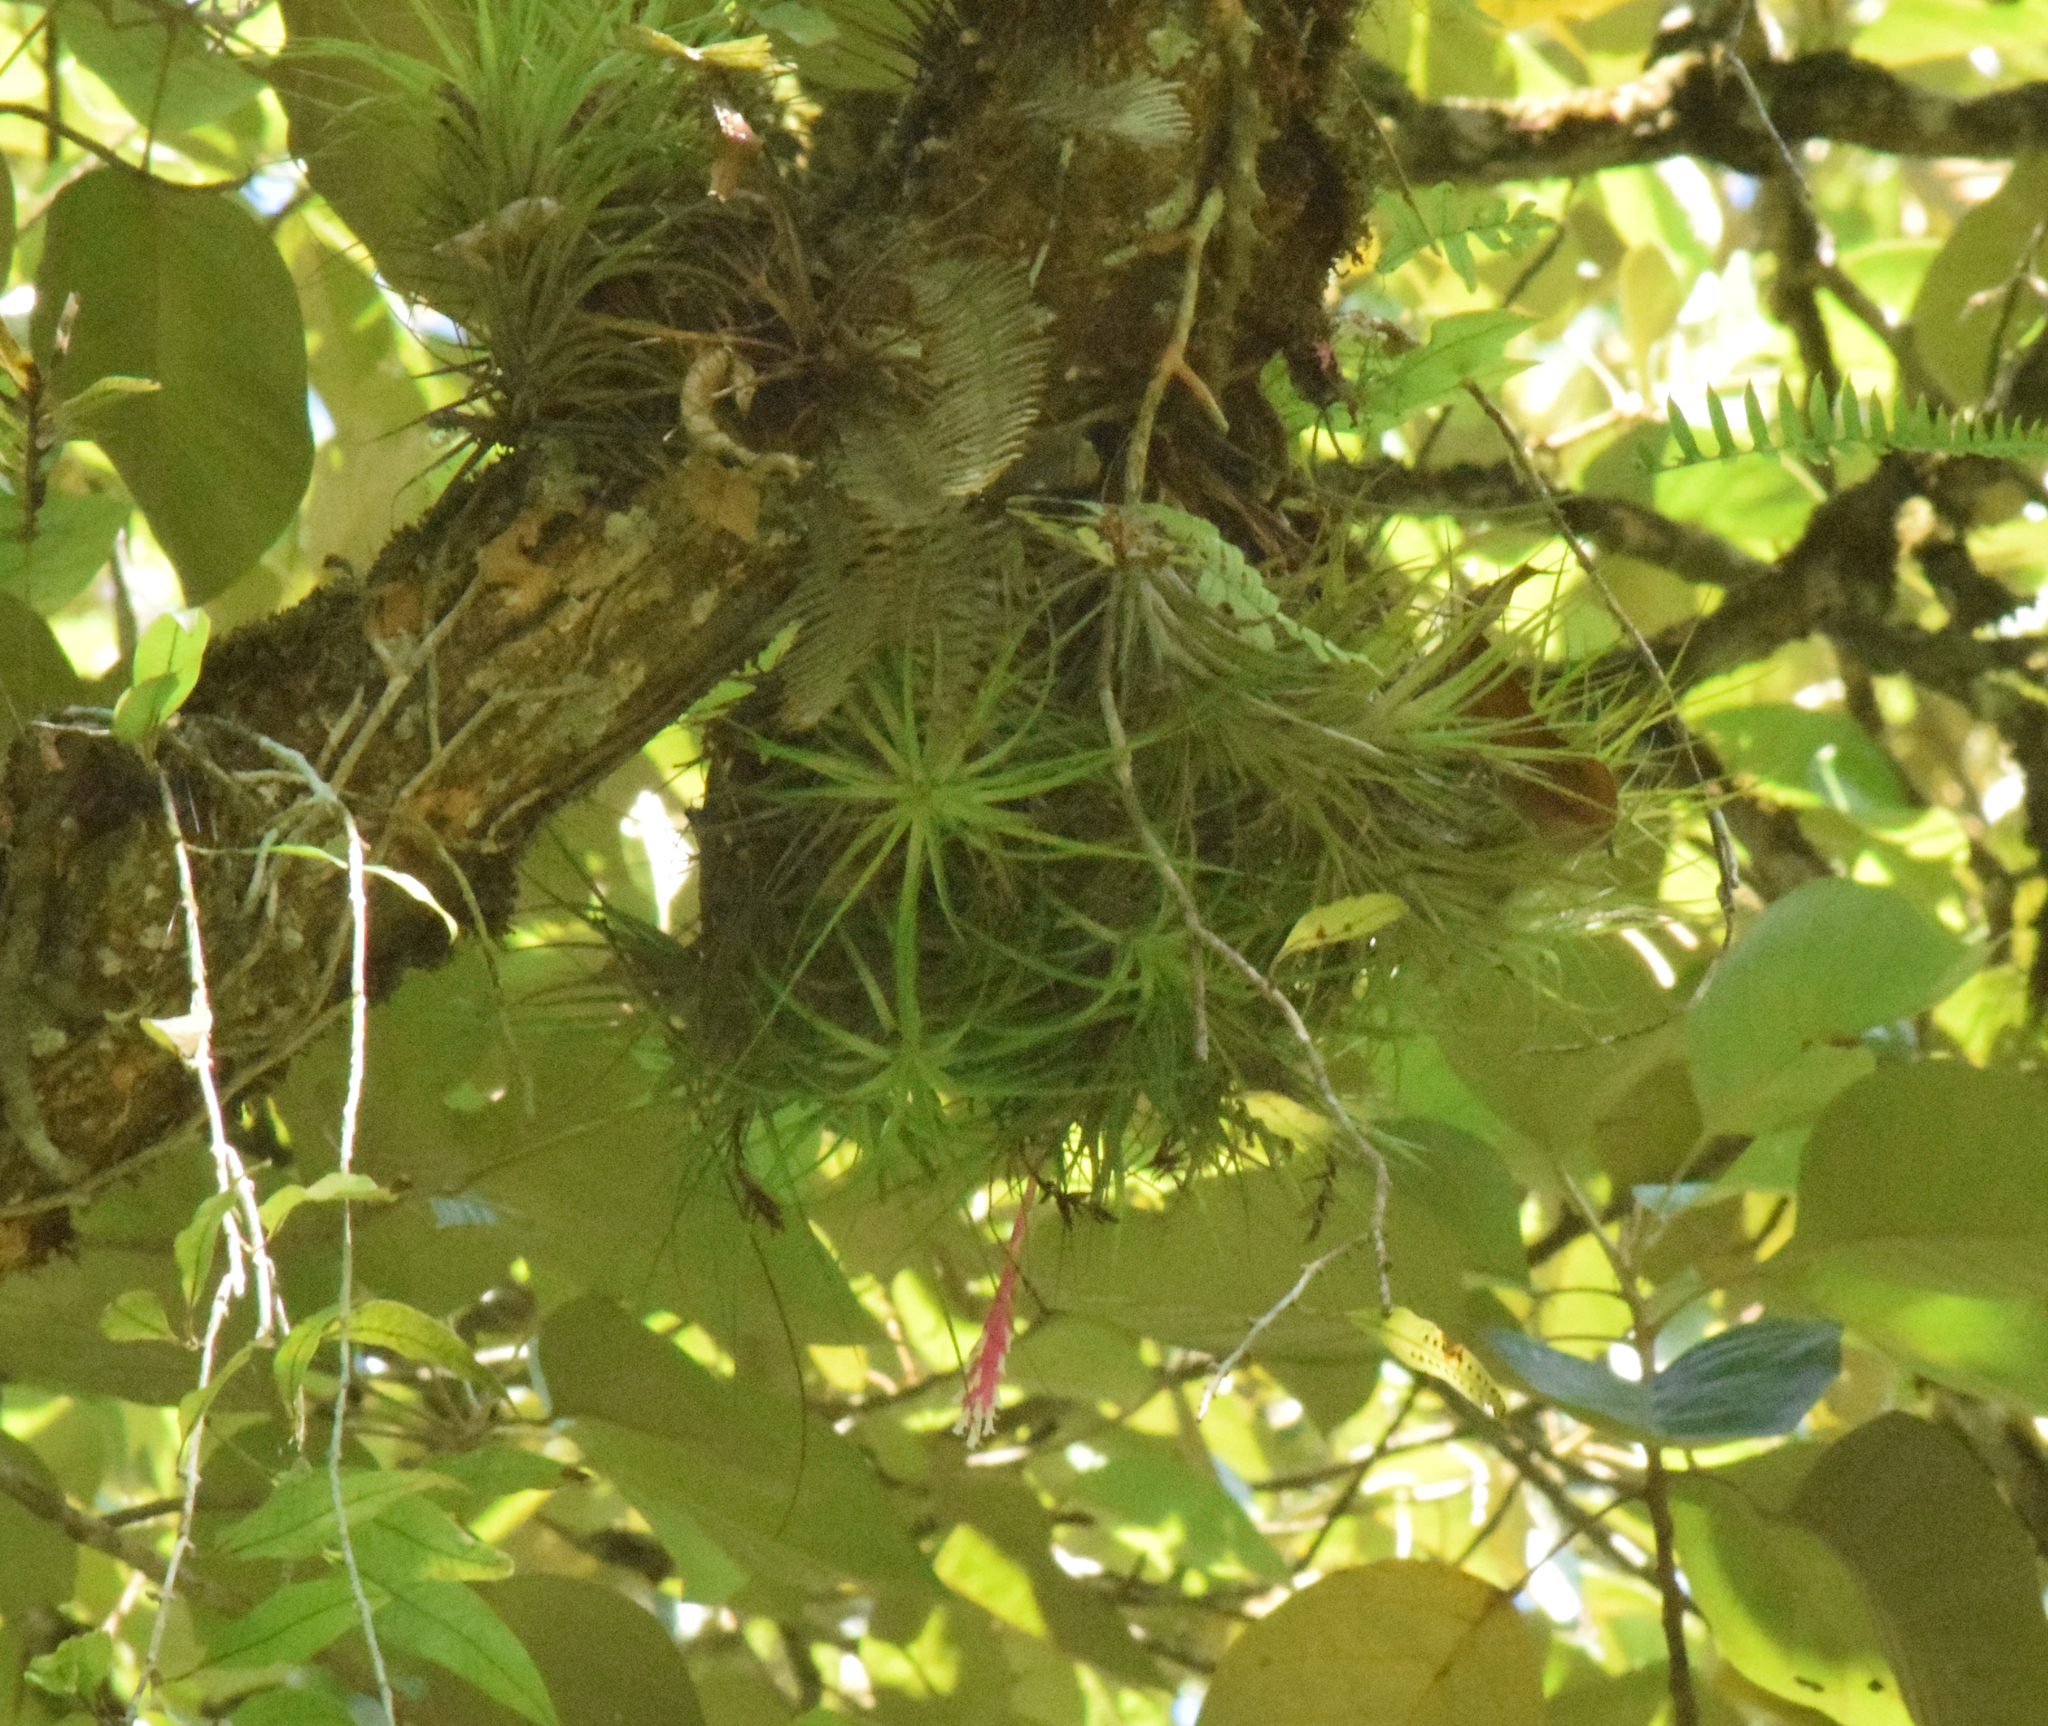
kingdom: Plantae
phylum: Tracheophyta
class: Liliopsida
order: Poales
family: Bromeliaceae
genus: Tillandsia
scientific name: Tillandsia tenuifolia
